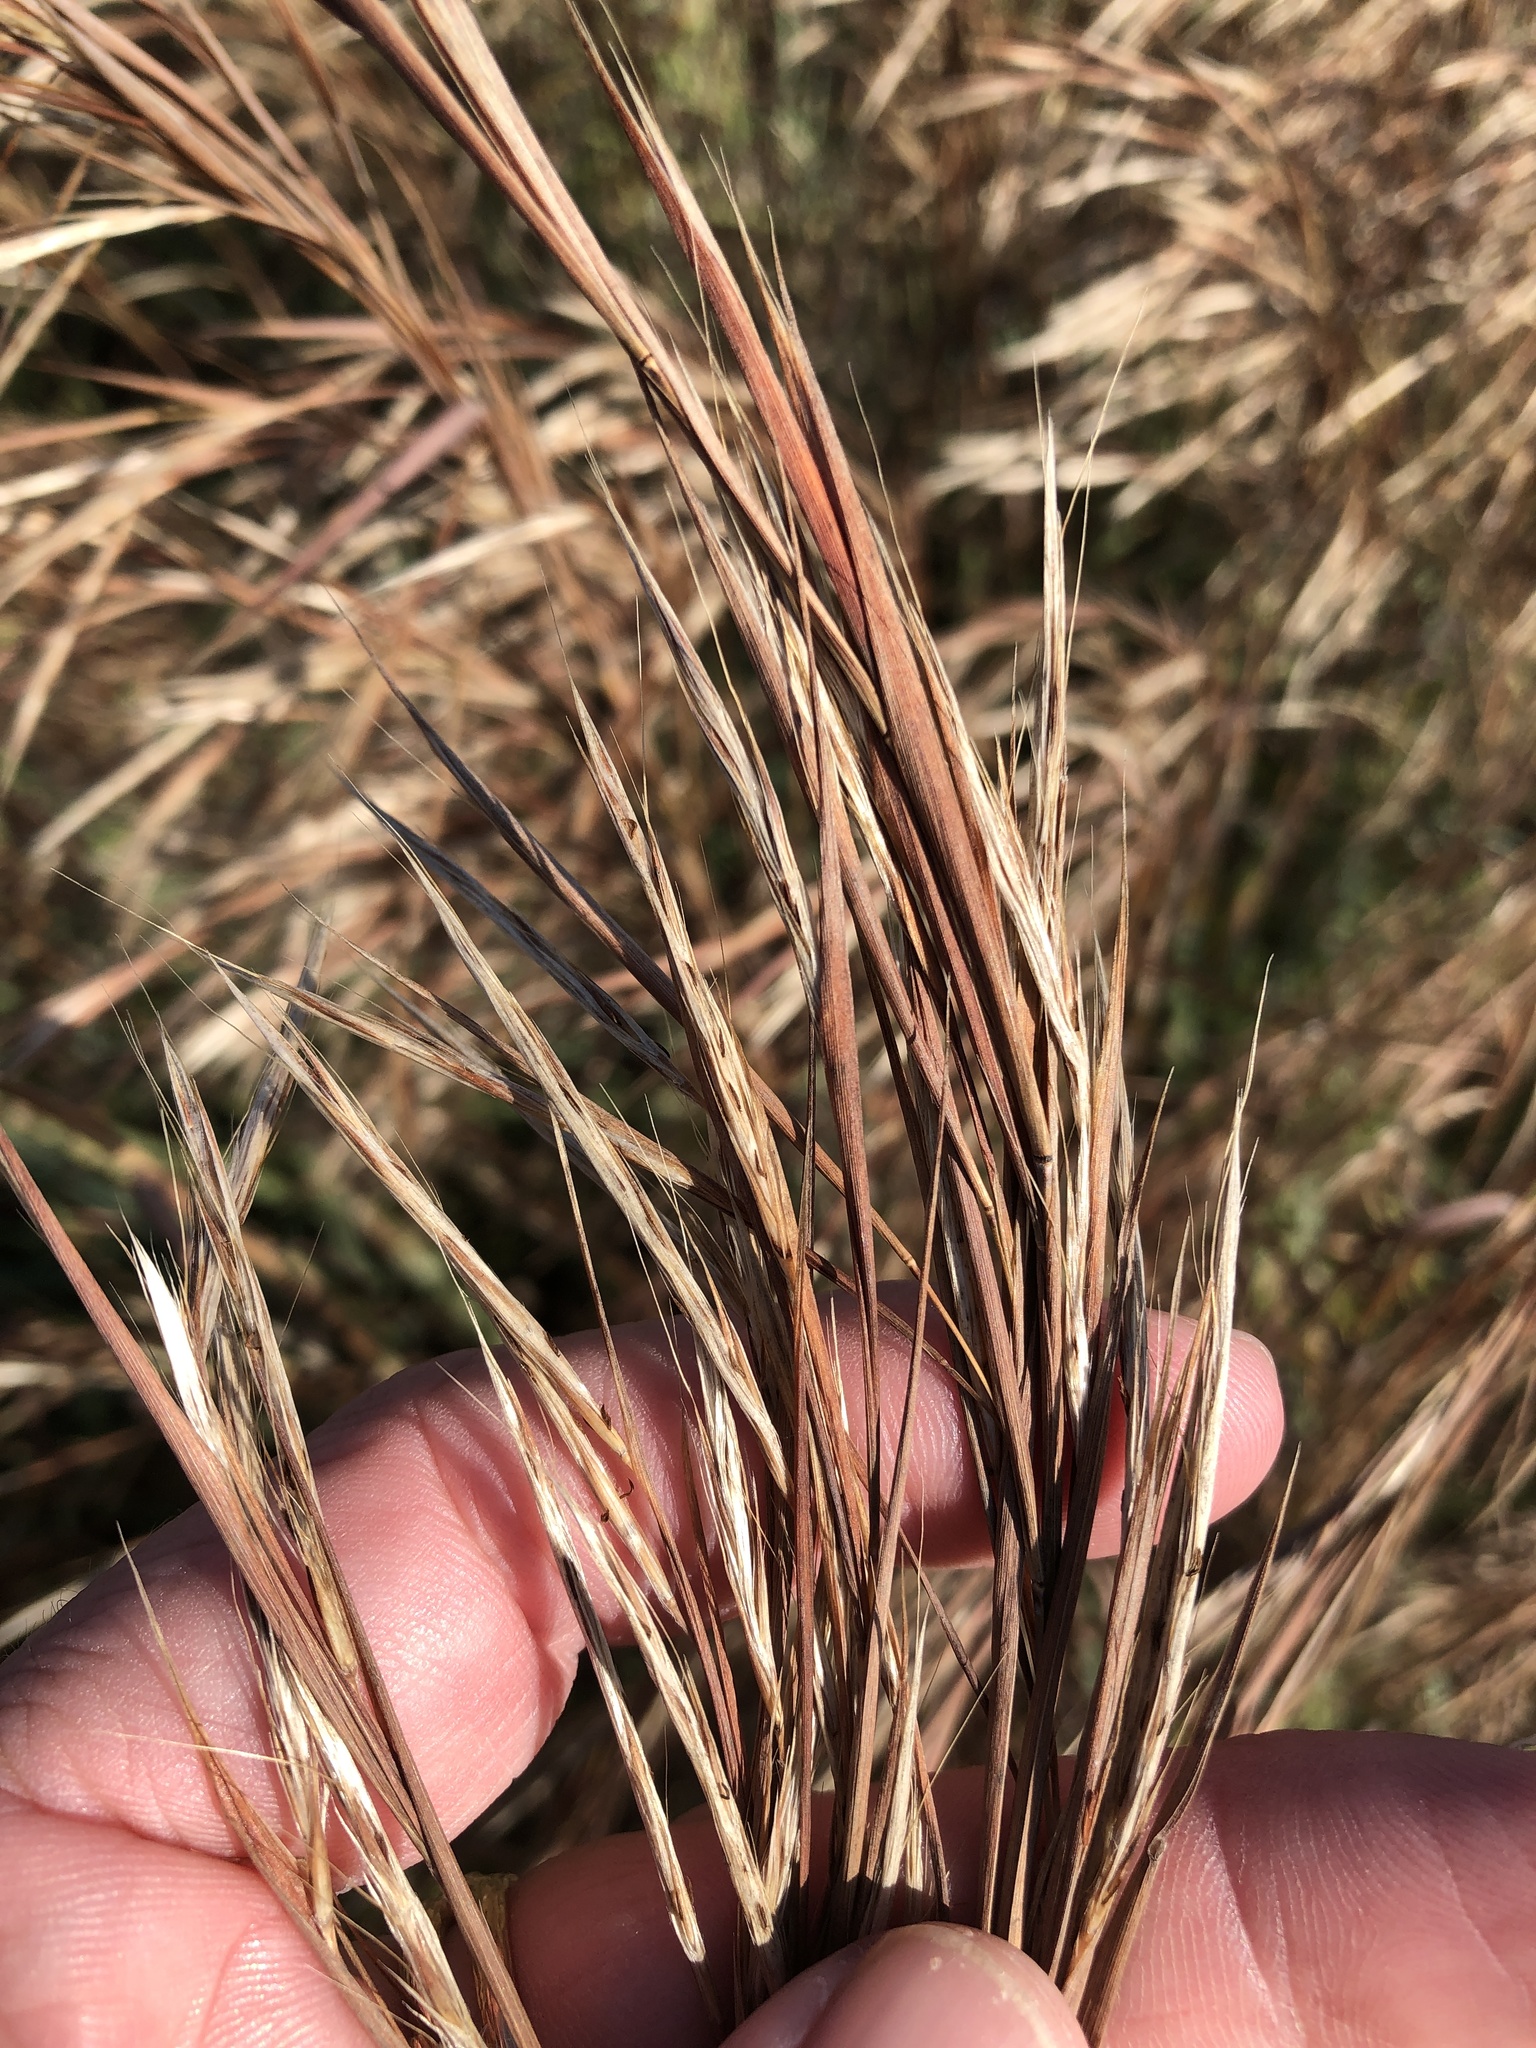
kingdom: Plantae
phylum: Tracheophyta
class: Liliopsida
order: Poales
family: Poaceae
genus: Schizachyrium
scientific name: Schizachyrium scoparium
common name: Little bluestem
